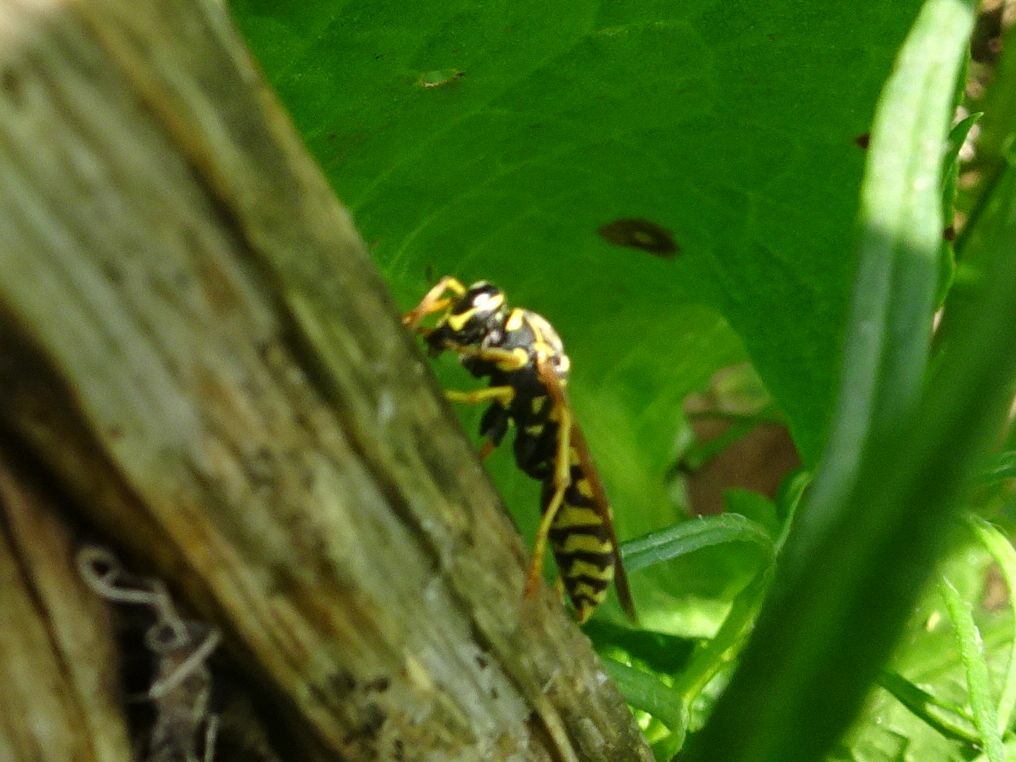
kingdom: Animalia
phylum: Arthropoda
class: Insecta
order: Hymenoptera
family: Eumenidae
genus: Polistes
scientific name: Polistes dominula
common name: Paper wasp
